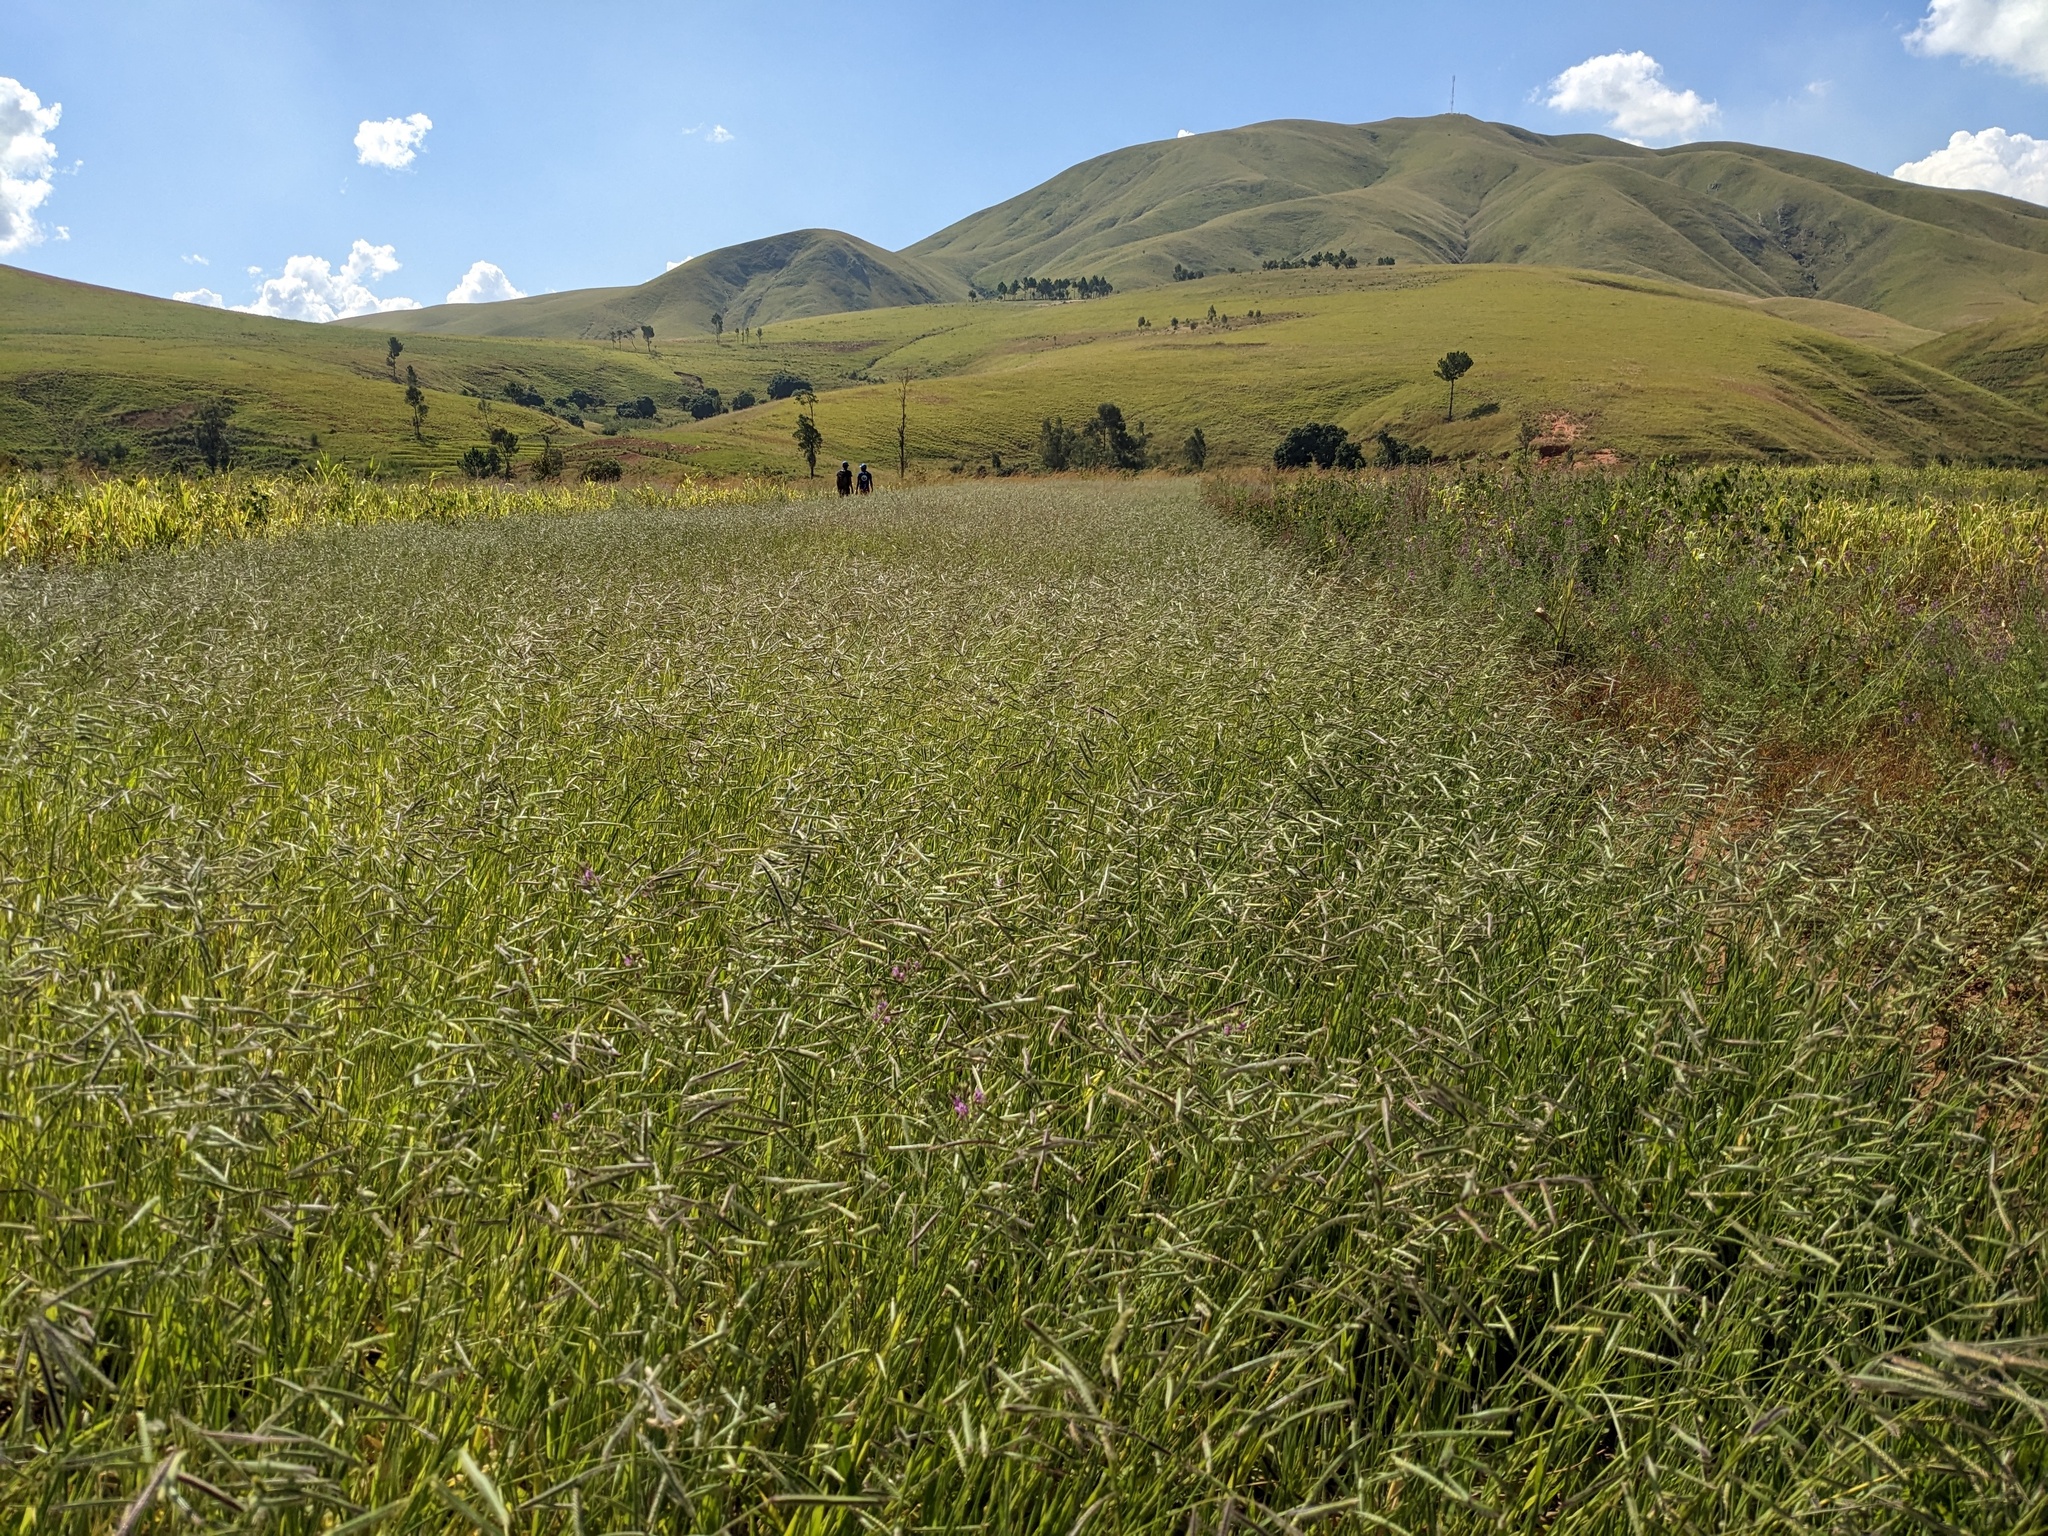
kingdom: Plantae
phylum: Tracheophyta
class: Liliopsida
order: Poales
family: Poaceae
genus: Urochloa
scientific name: Urochloa brizantha
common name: Palisade signalgrass
